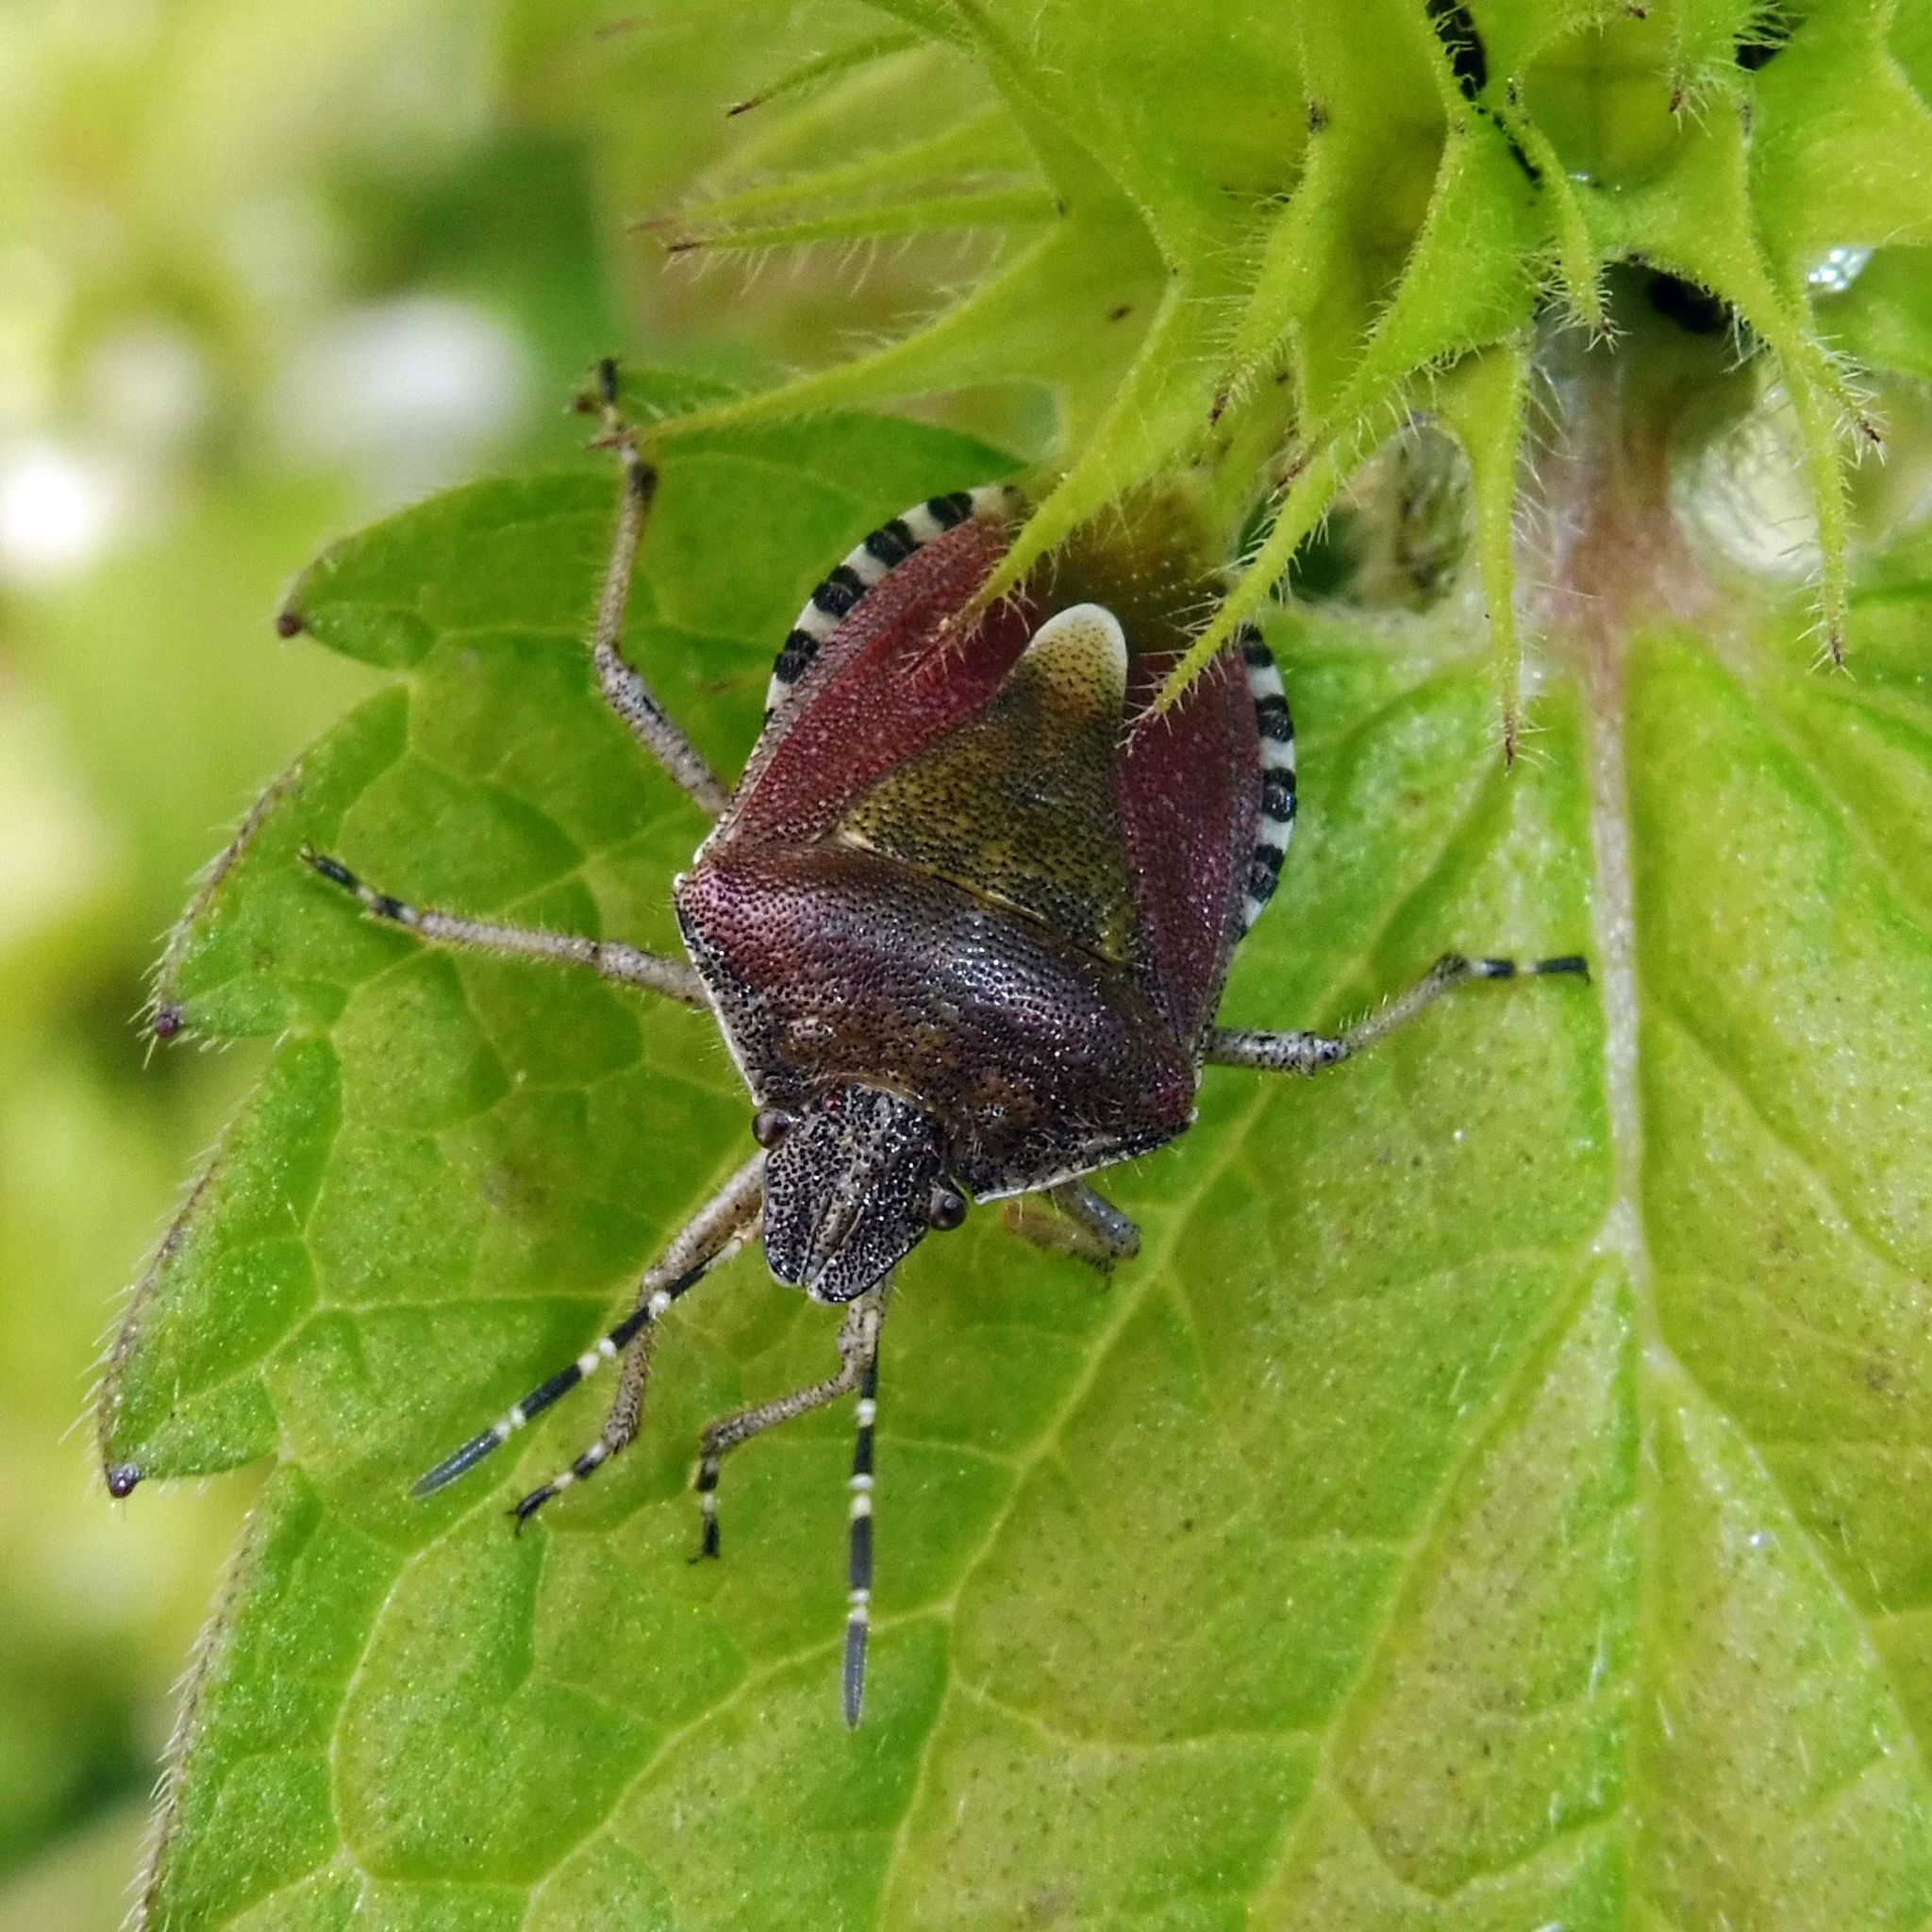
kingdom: Animalia
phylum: Arthropoda
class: Insecta
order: Hemiptera
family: Pentatomidae
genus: Dolycoris
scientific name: Dolycoris baccarum
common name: Sloe bug
